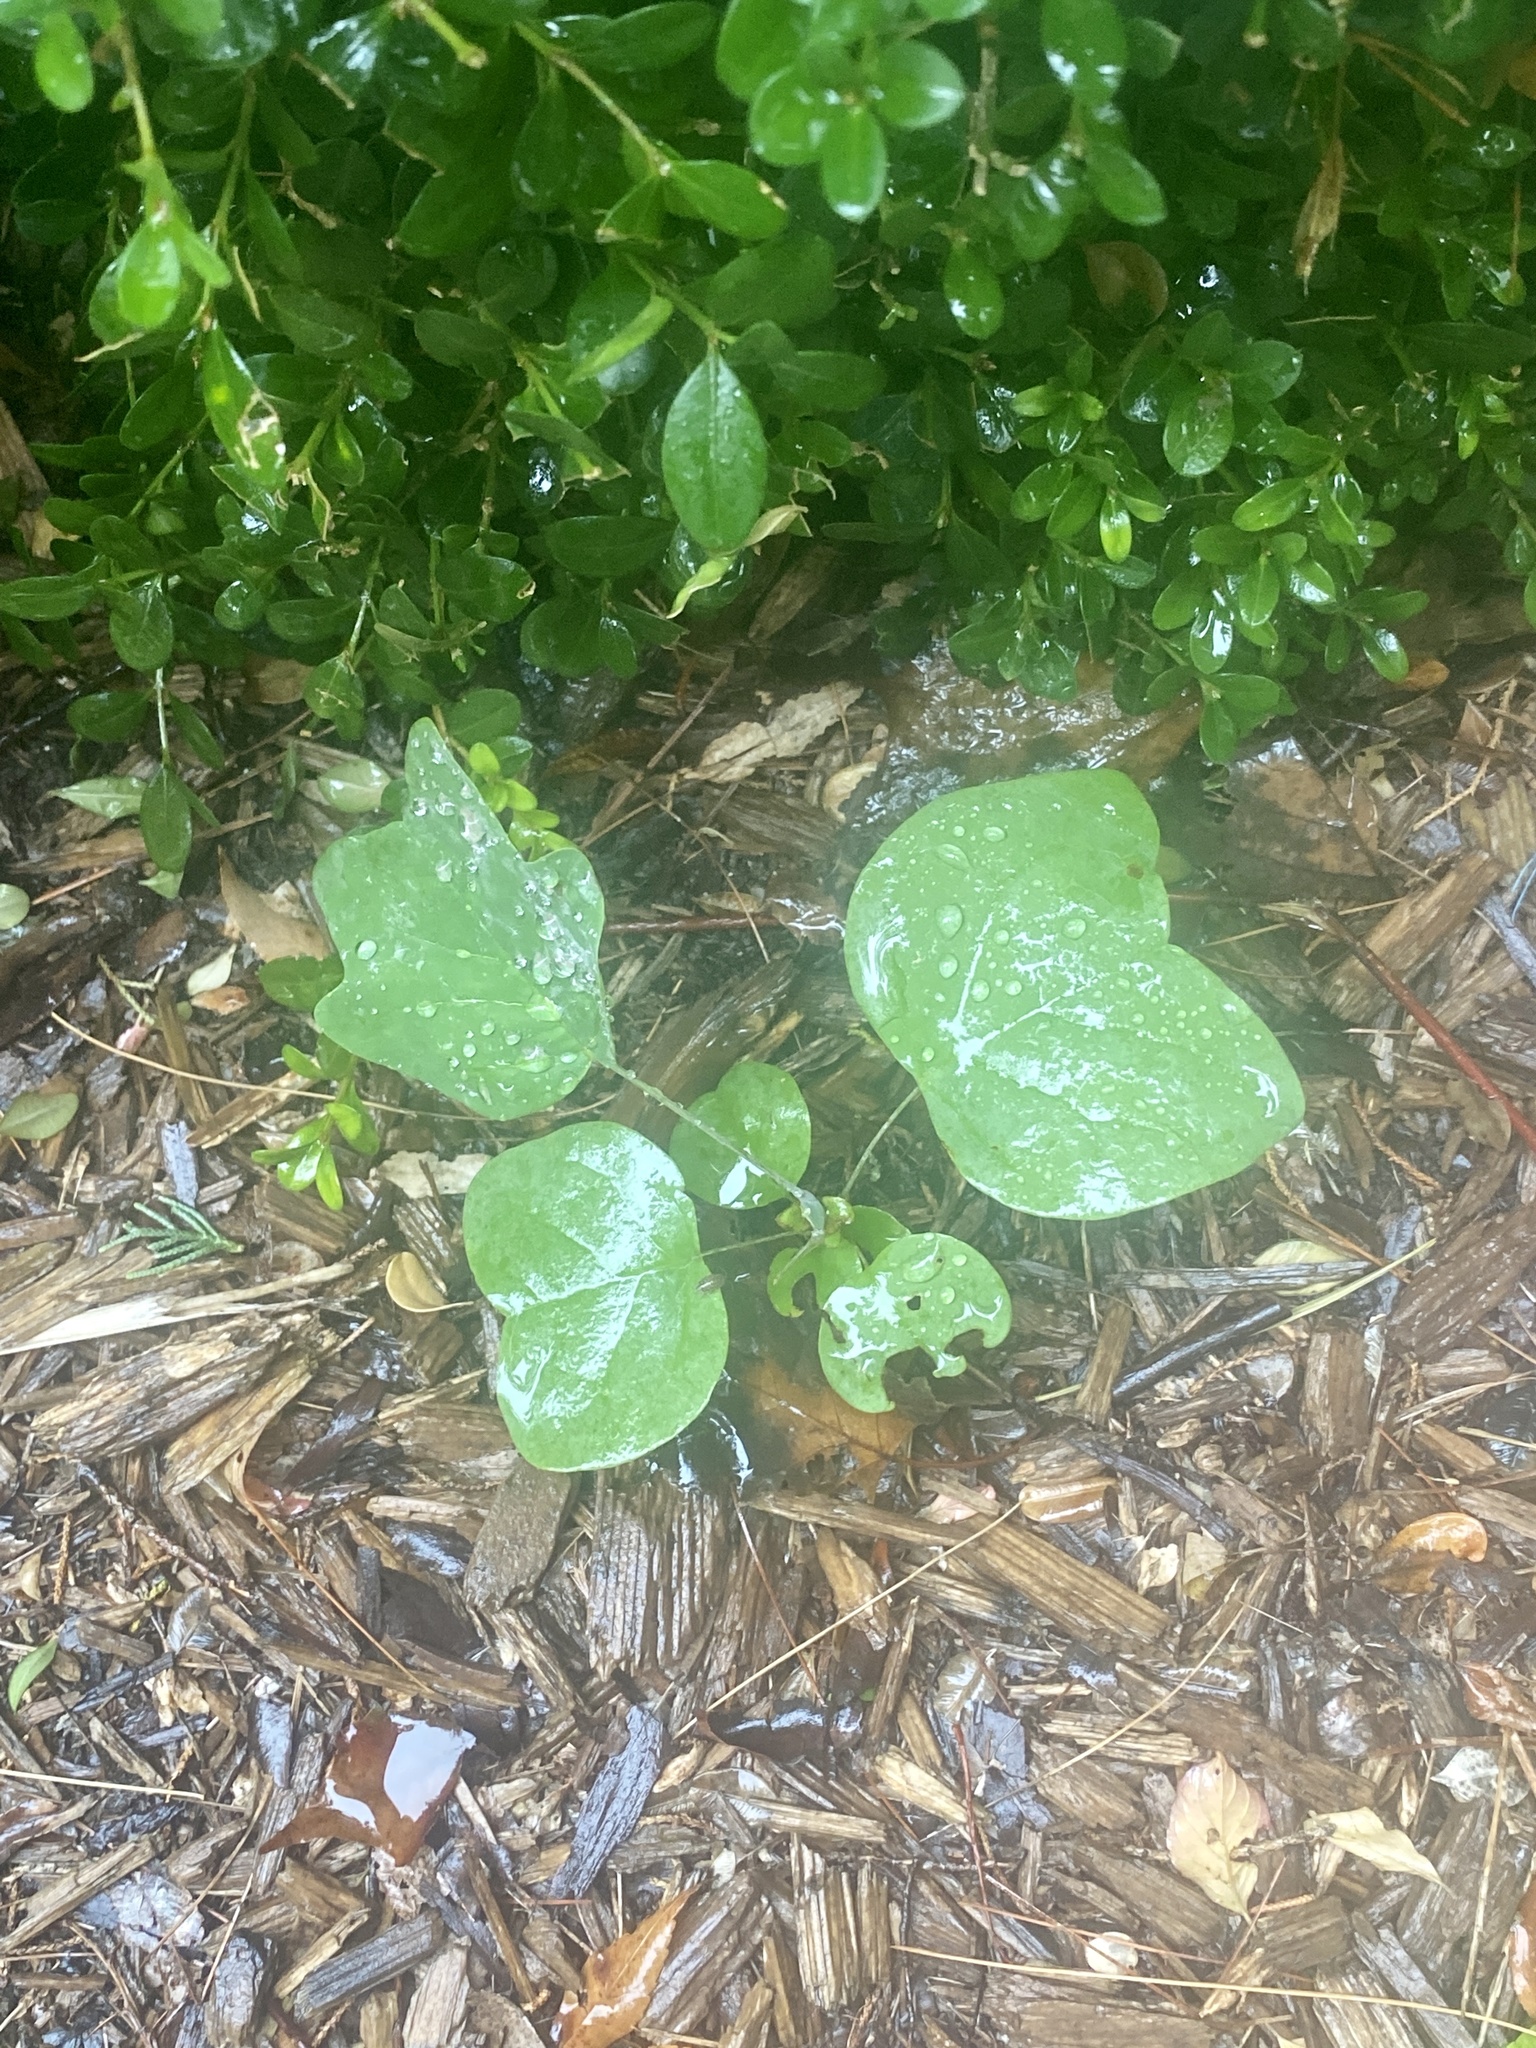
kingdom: Plantae
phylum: Tracheophyta
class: Magnoliopsida
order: Magnoliales
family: Magnoliaceae
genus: Liriodendron
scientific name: Liriodendron tulipifera
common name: Tulip tree
